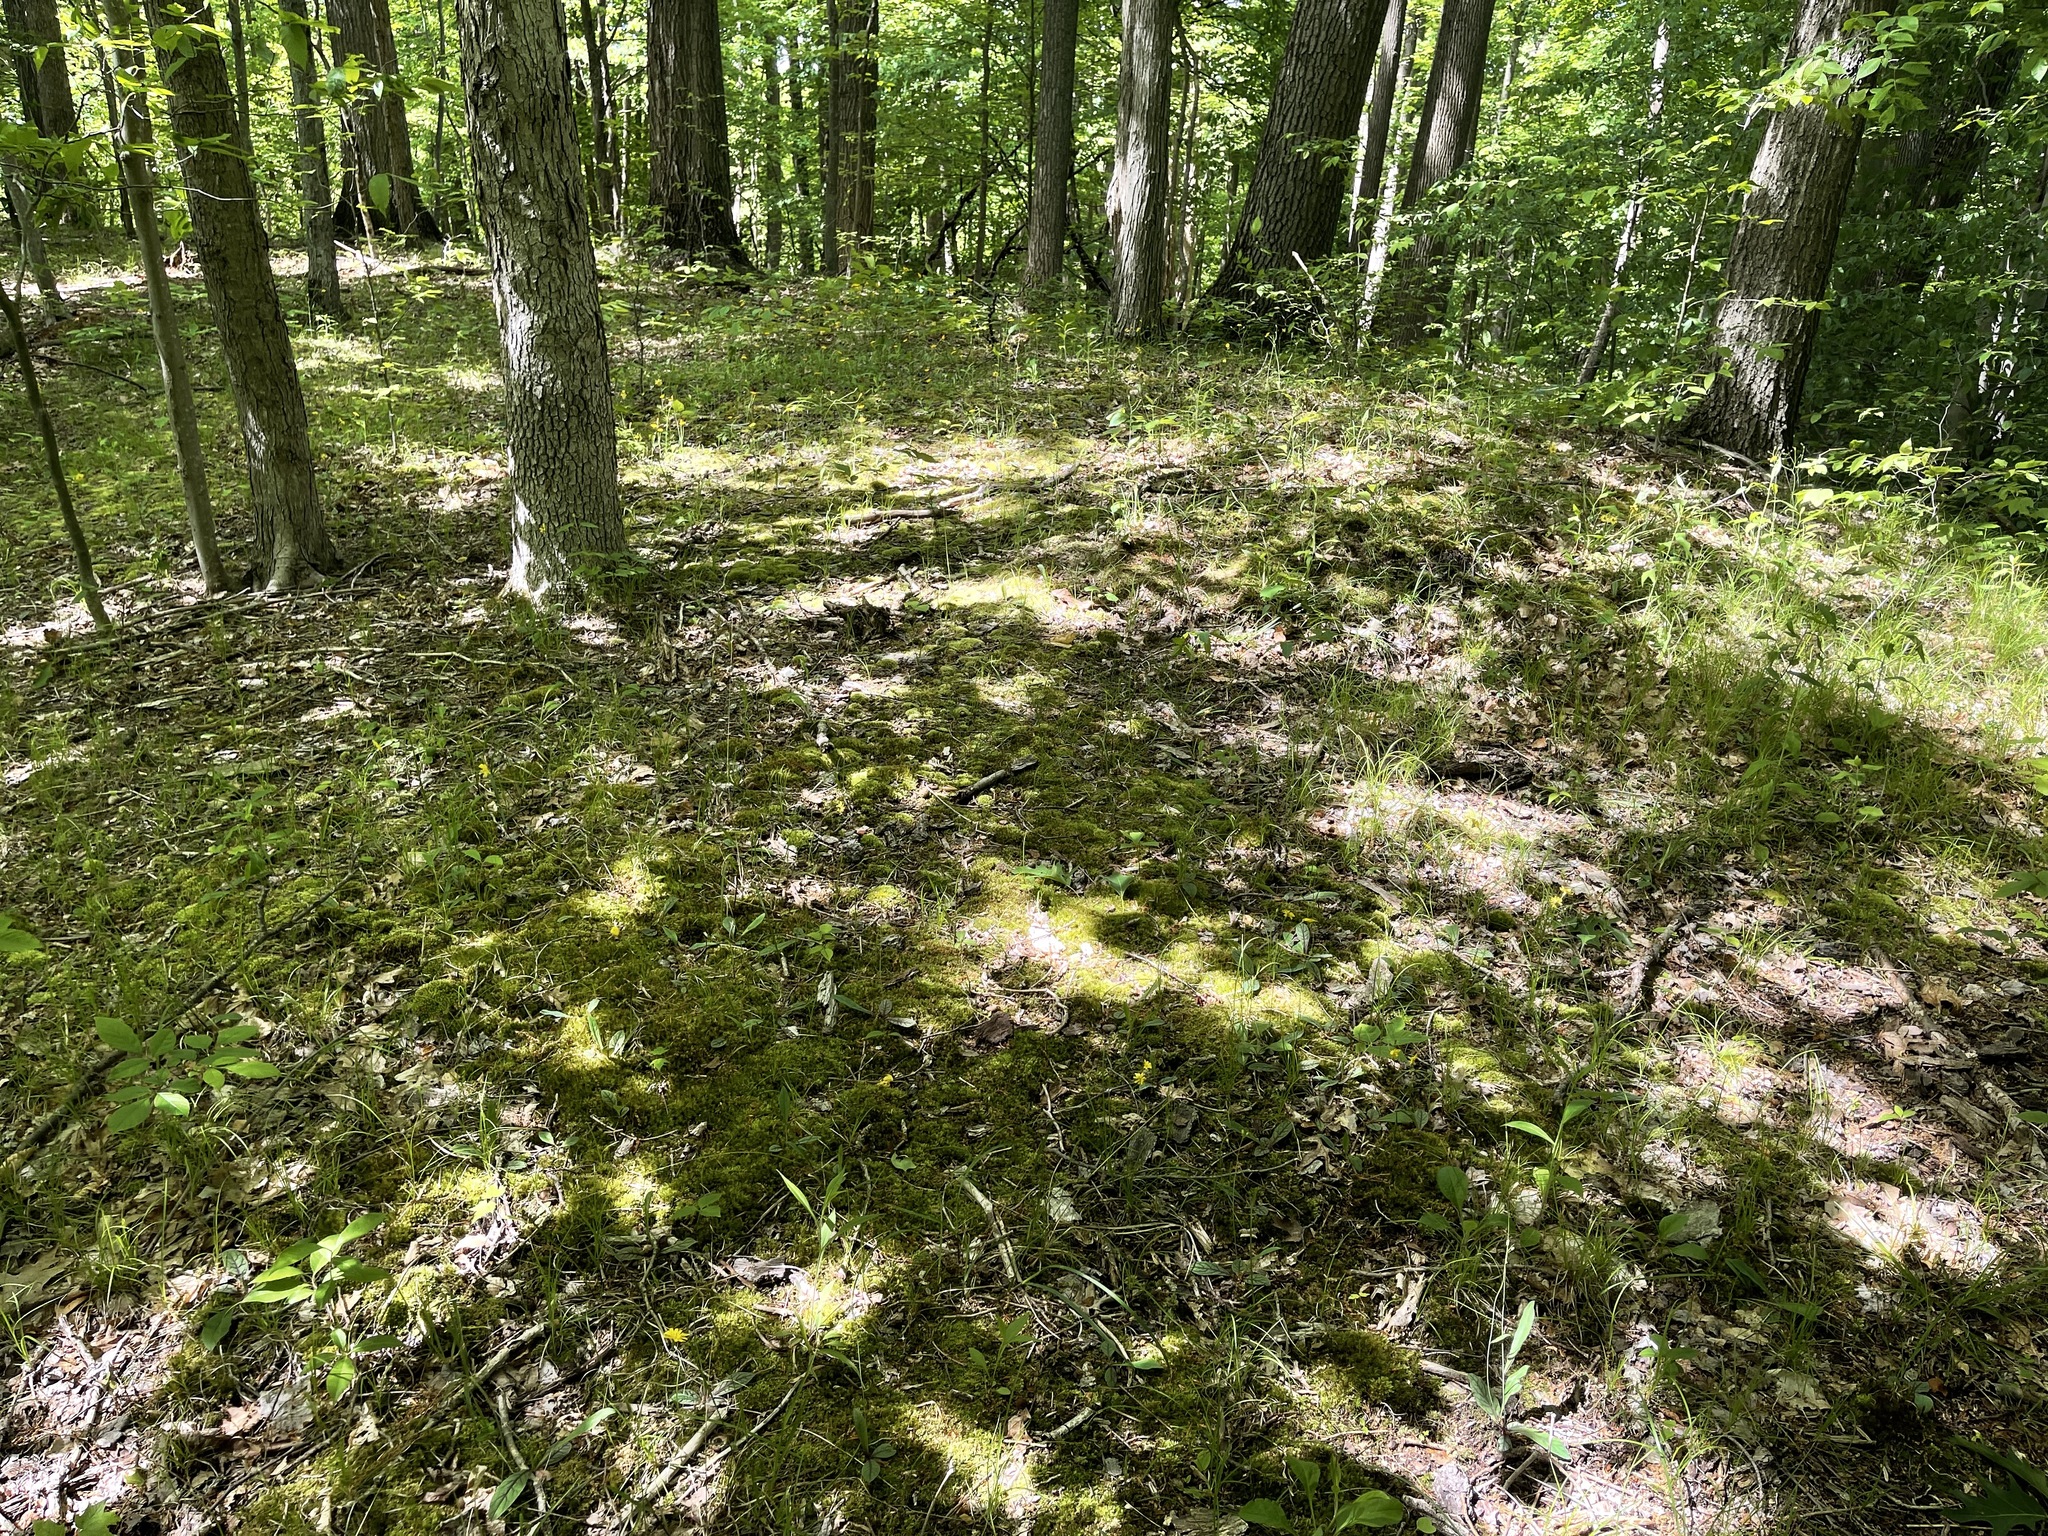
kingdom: Plantae
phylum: Tracheophyta
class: Magnoliopsida
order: Asterales
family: Asteraceae
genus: Krigia
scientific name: Krigia biflora
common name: Orange dwarf-dandelion
